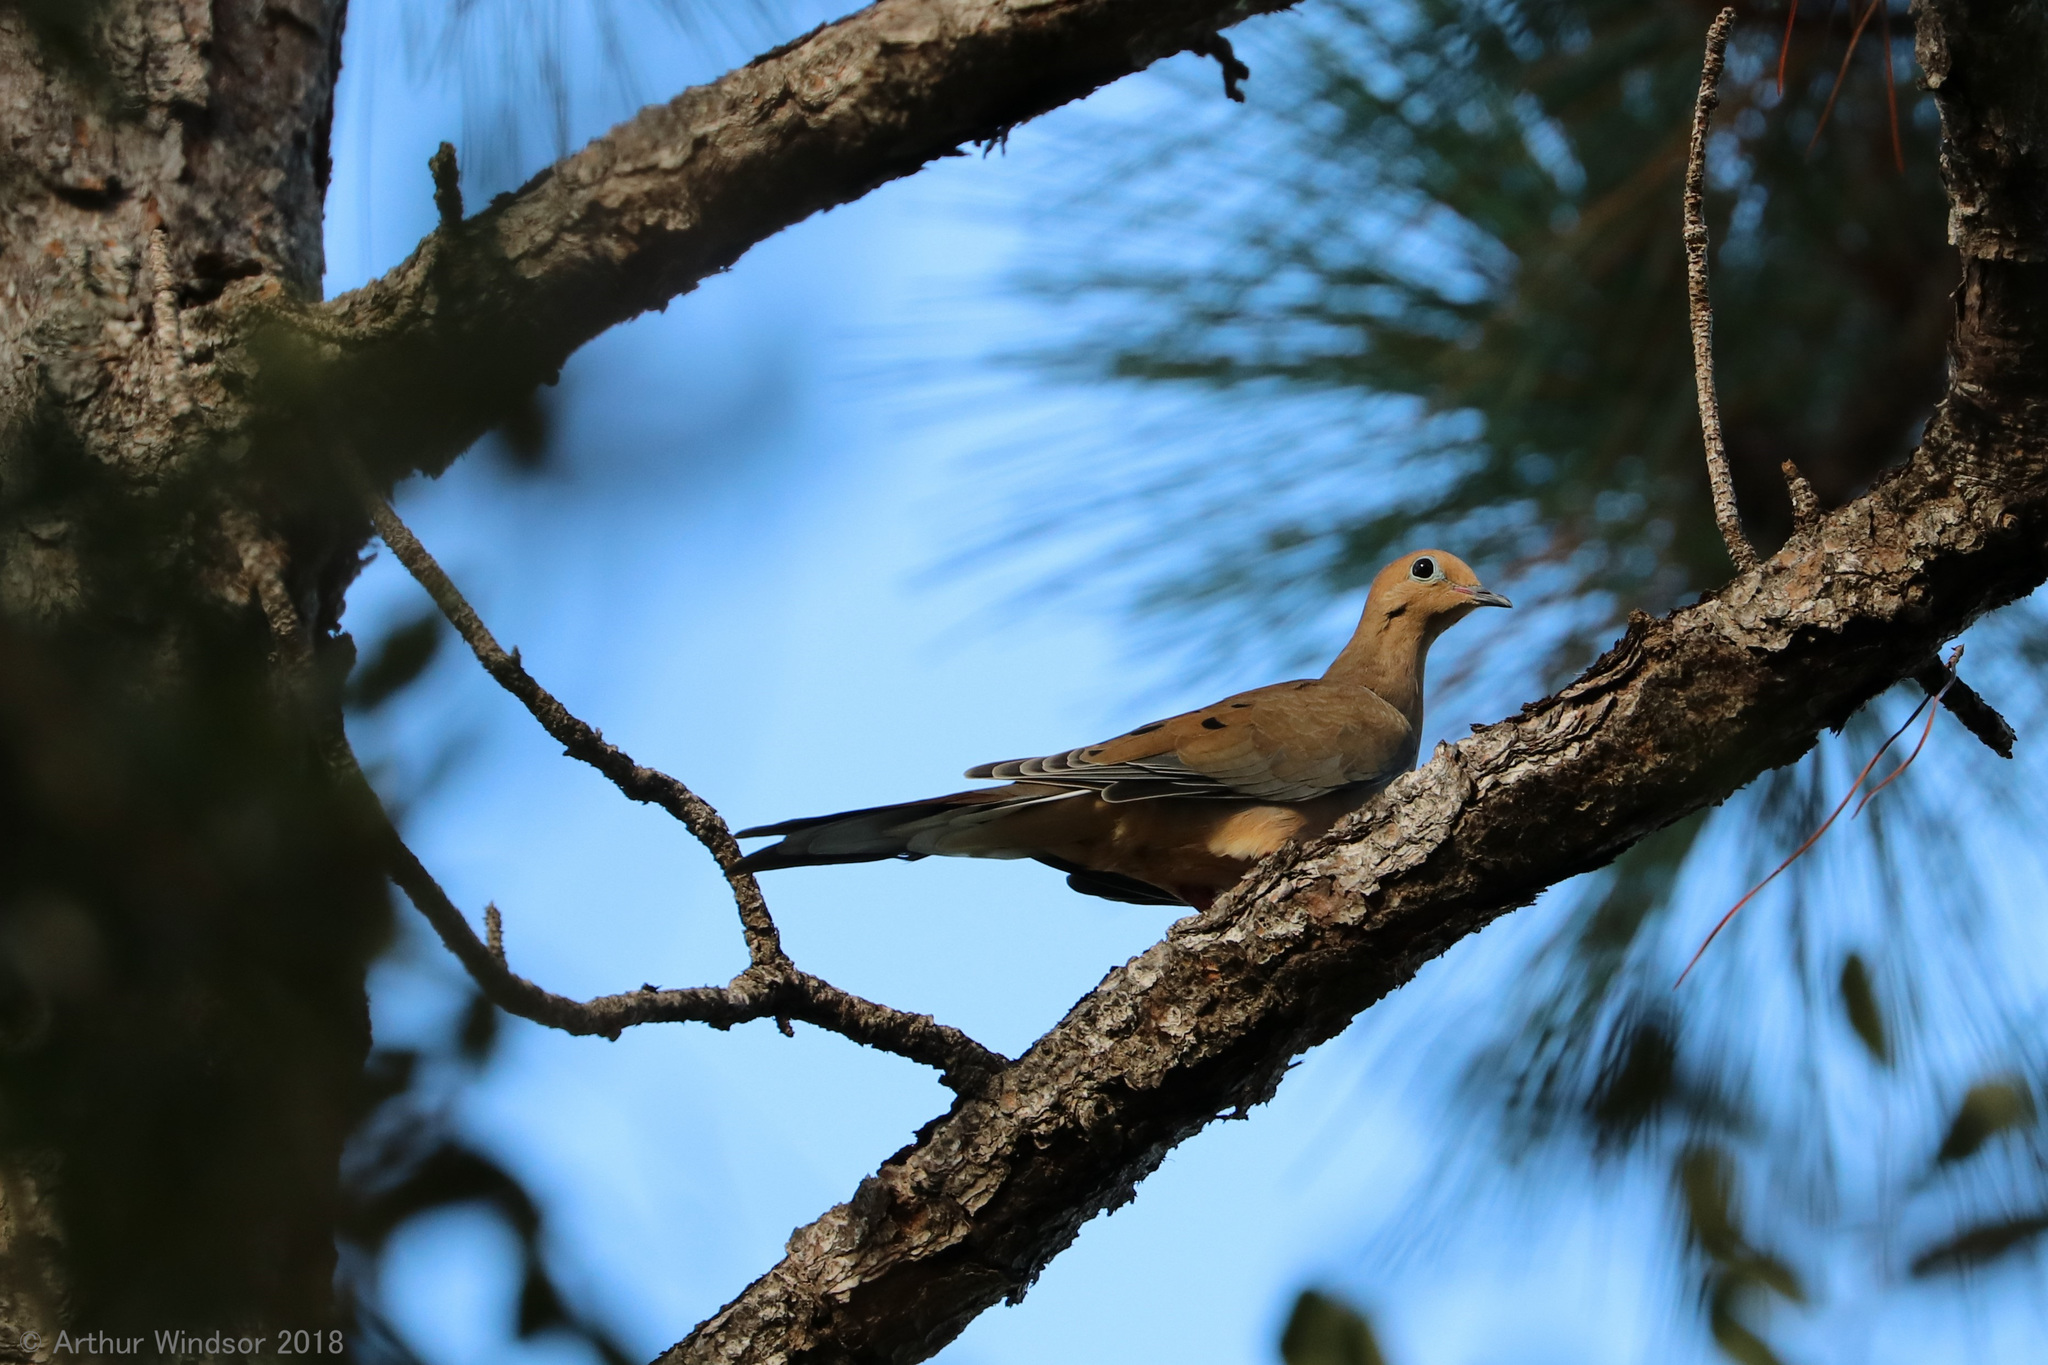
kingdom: Animalia
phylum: Chordata
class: Aves
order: Columbiformes
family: Columbidae
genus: Zenaida
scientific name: Zenaida macroura
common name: Mourning dove
